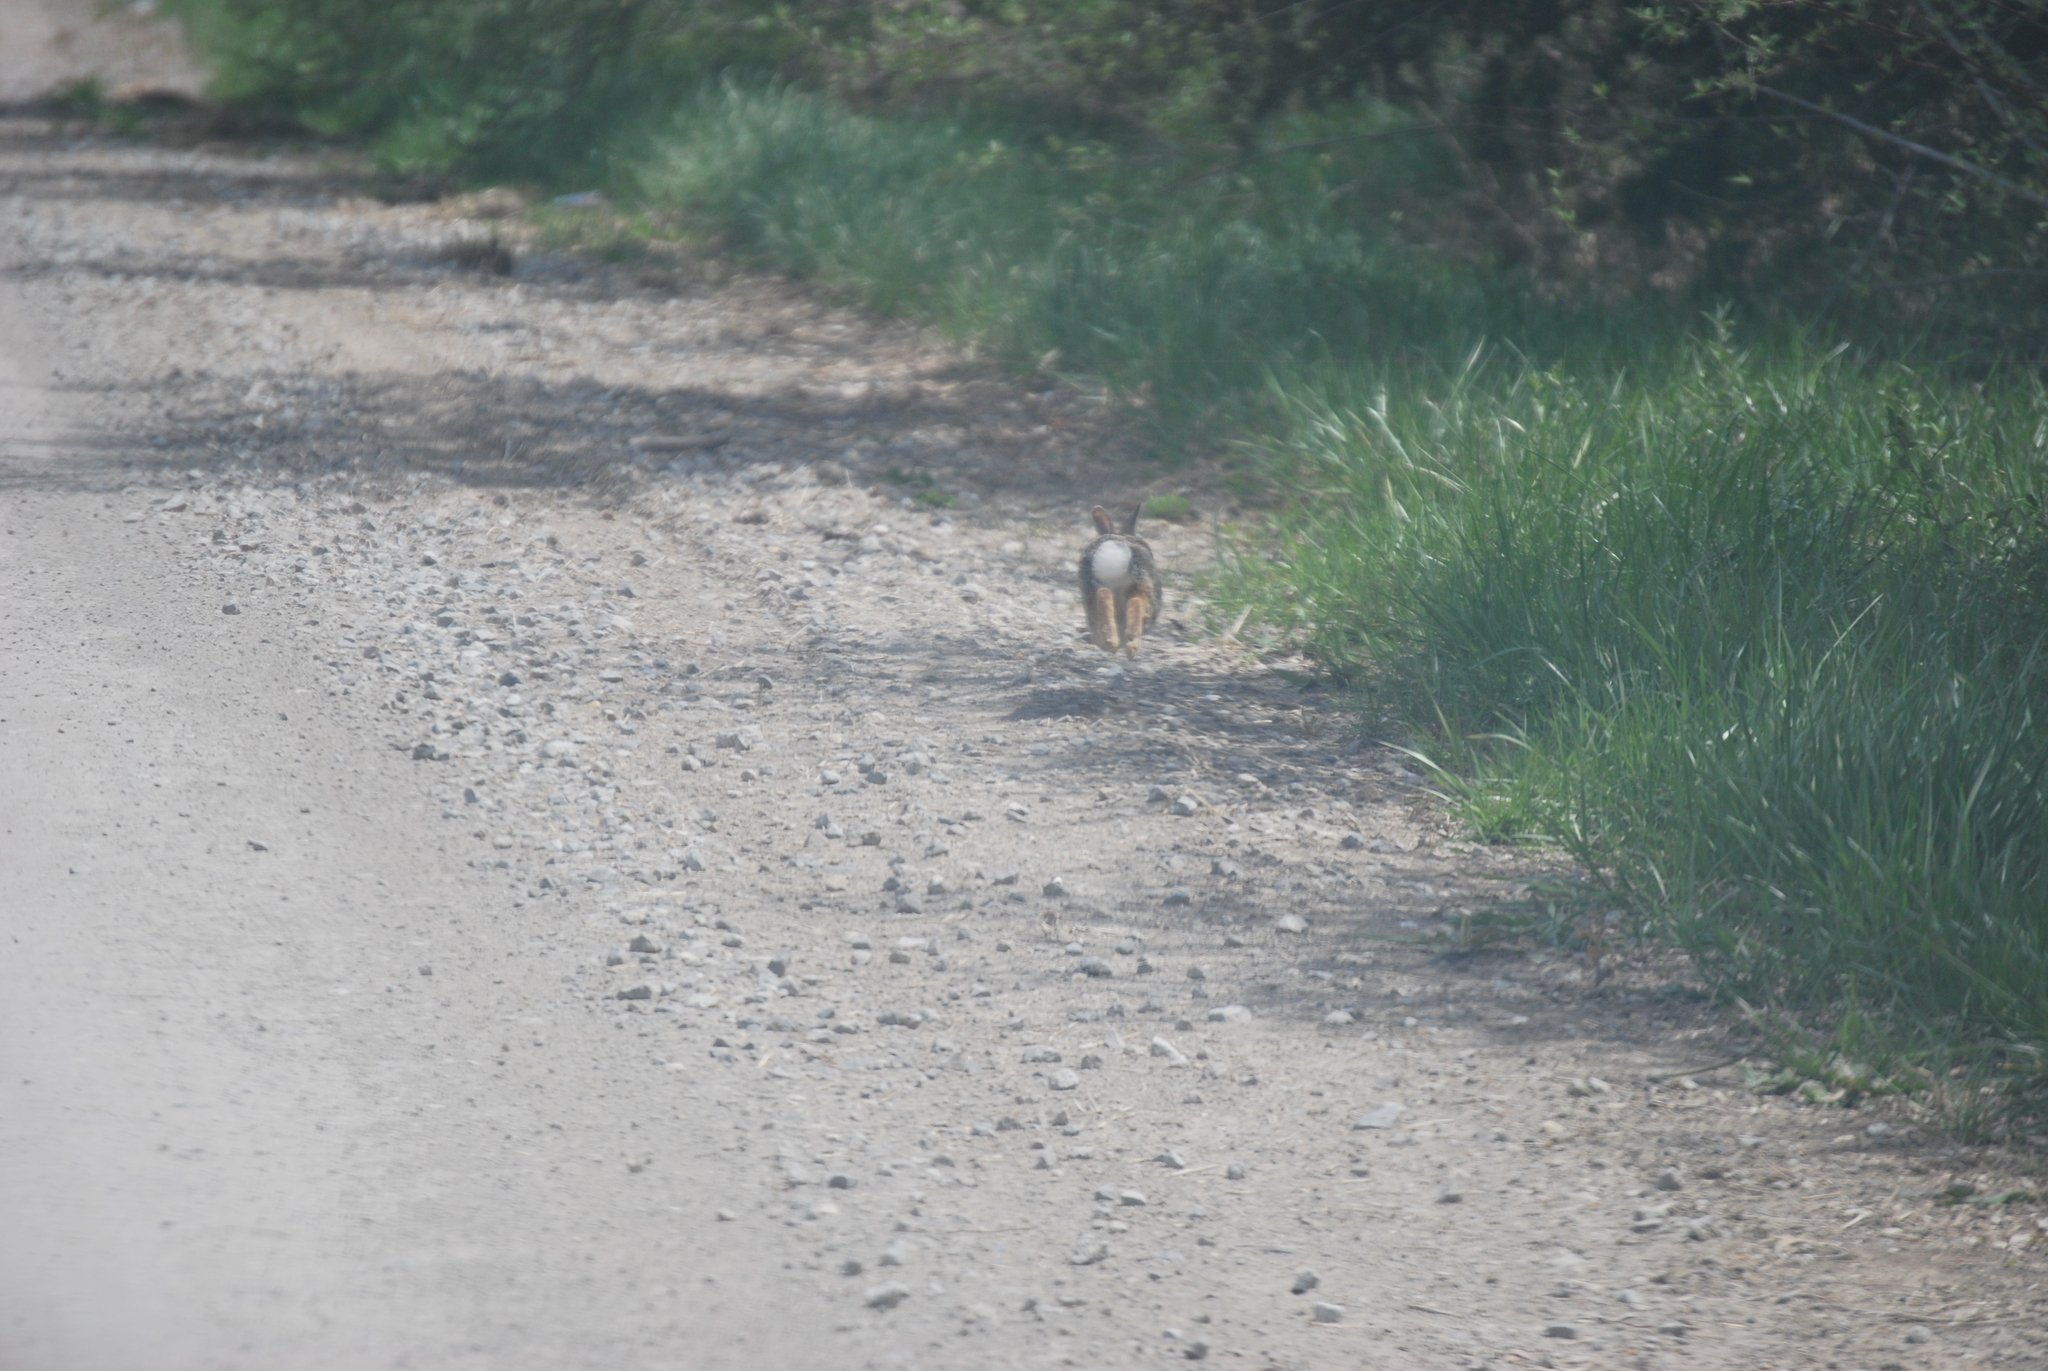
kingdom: Animalia
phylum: Chordata
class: Mammalia
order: Lagomorpha
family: Leporidae
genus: Sylvilagus
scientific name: Sylvilagus floridanus
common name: Eastern cottontail
